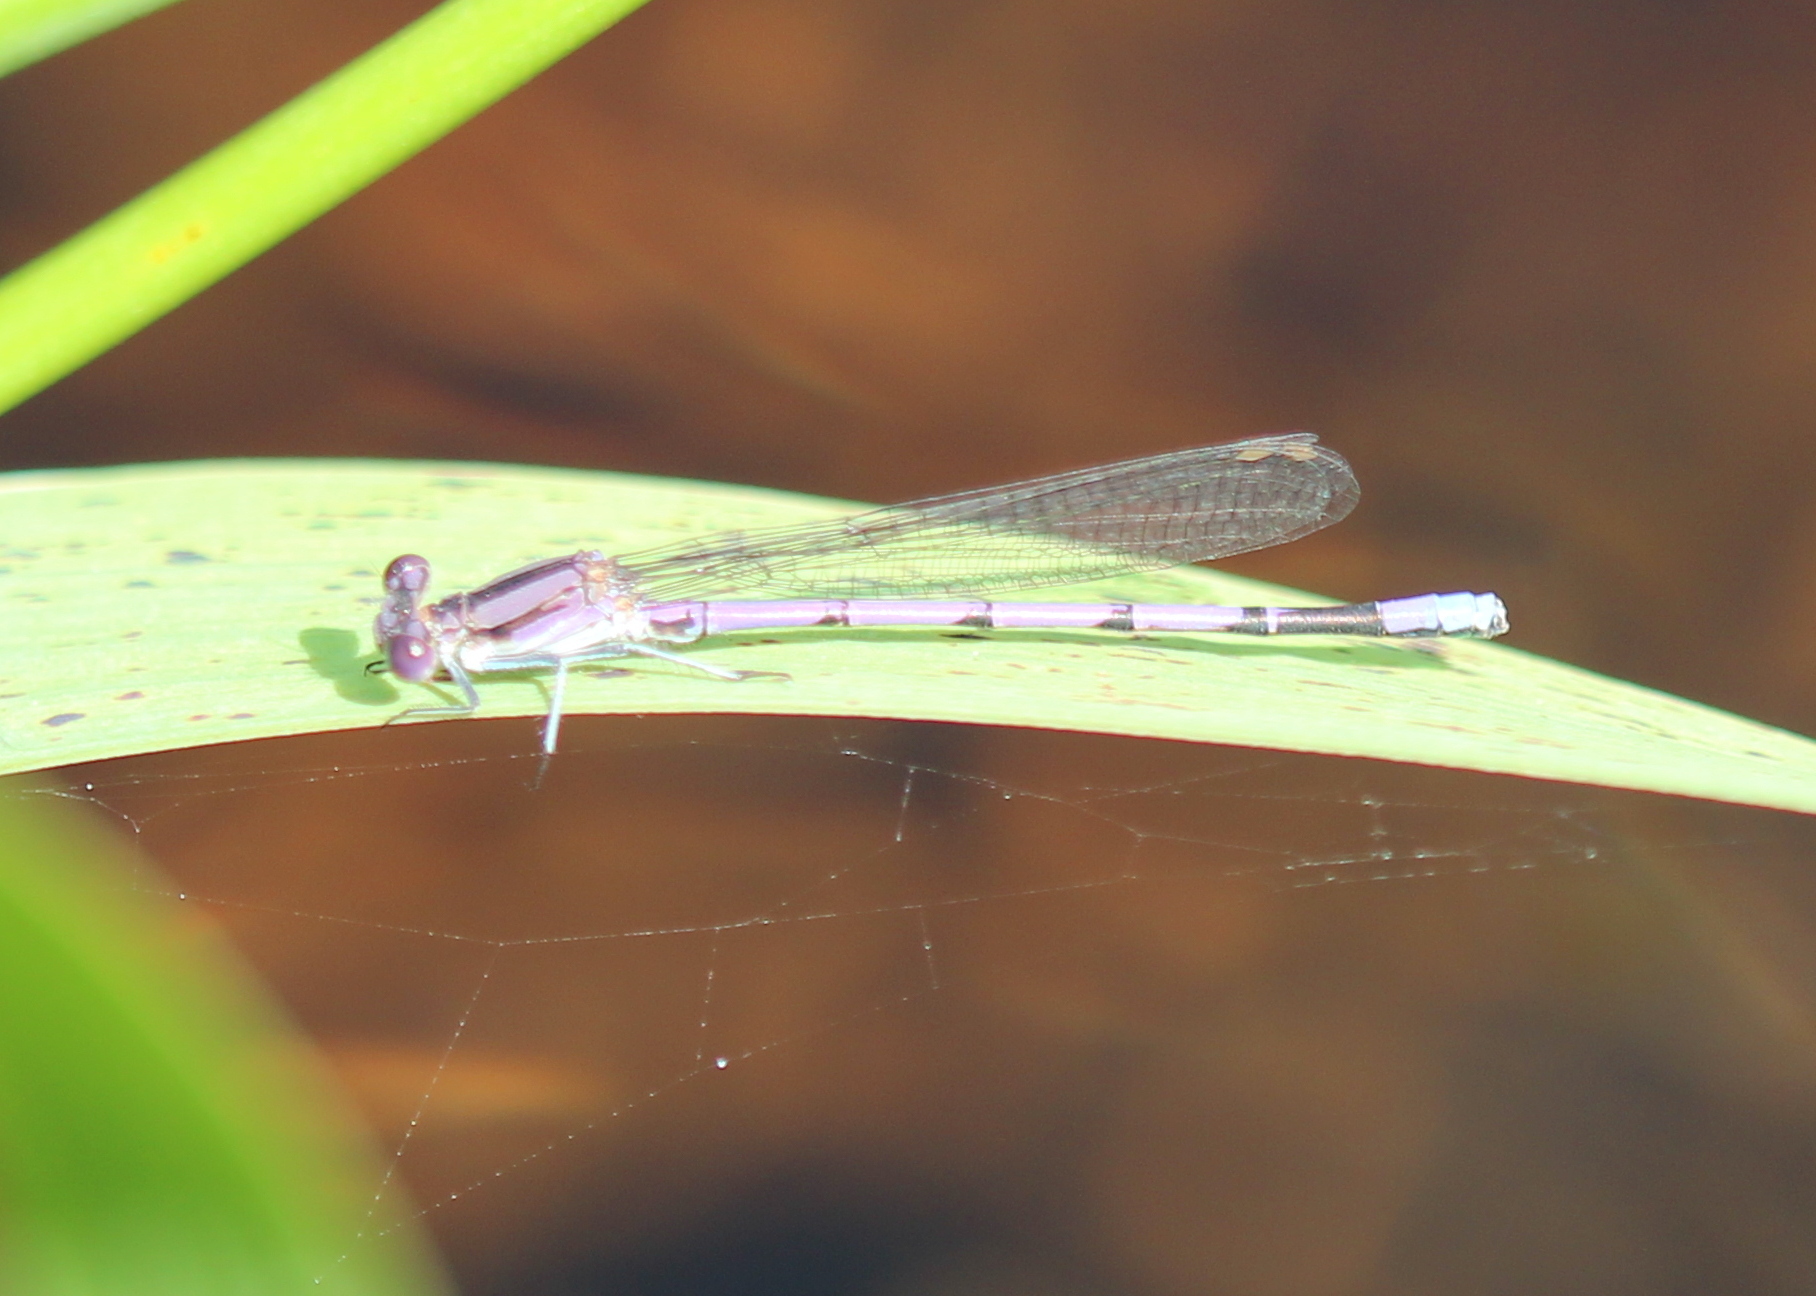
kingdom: Animalia
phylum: Arthropoda
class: Insecta
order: Odonata
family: Coenagrionidae
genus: Argia
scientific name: Argia fumipennis
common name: Variable dancer
